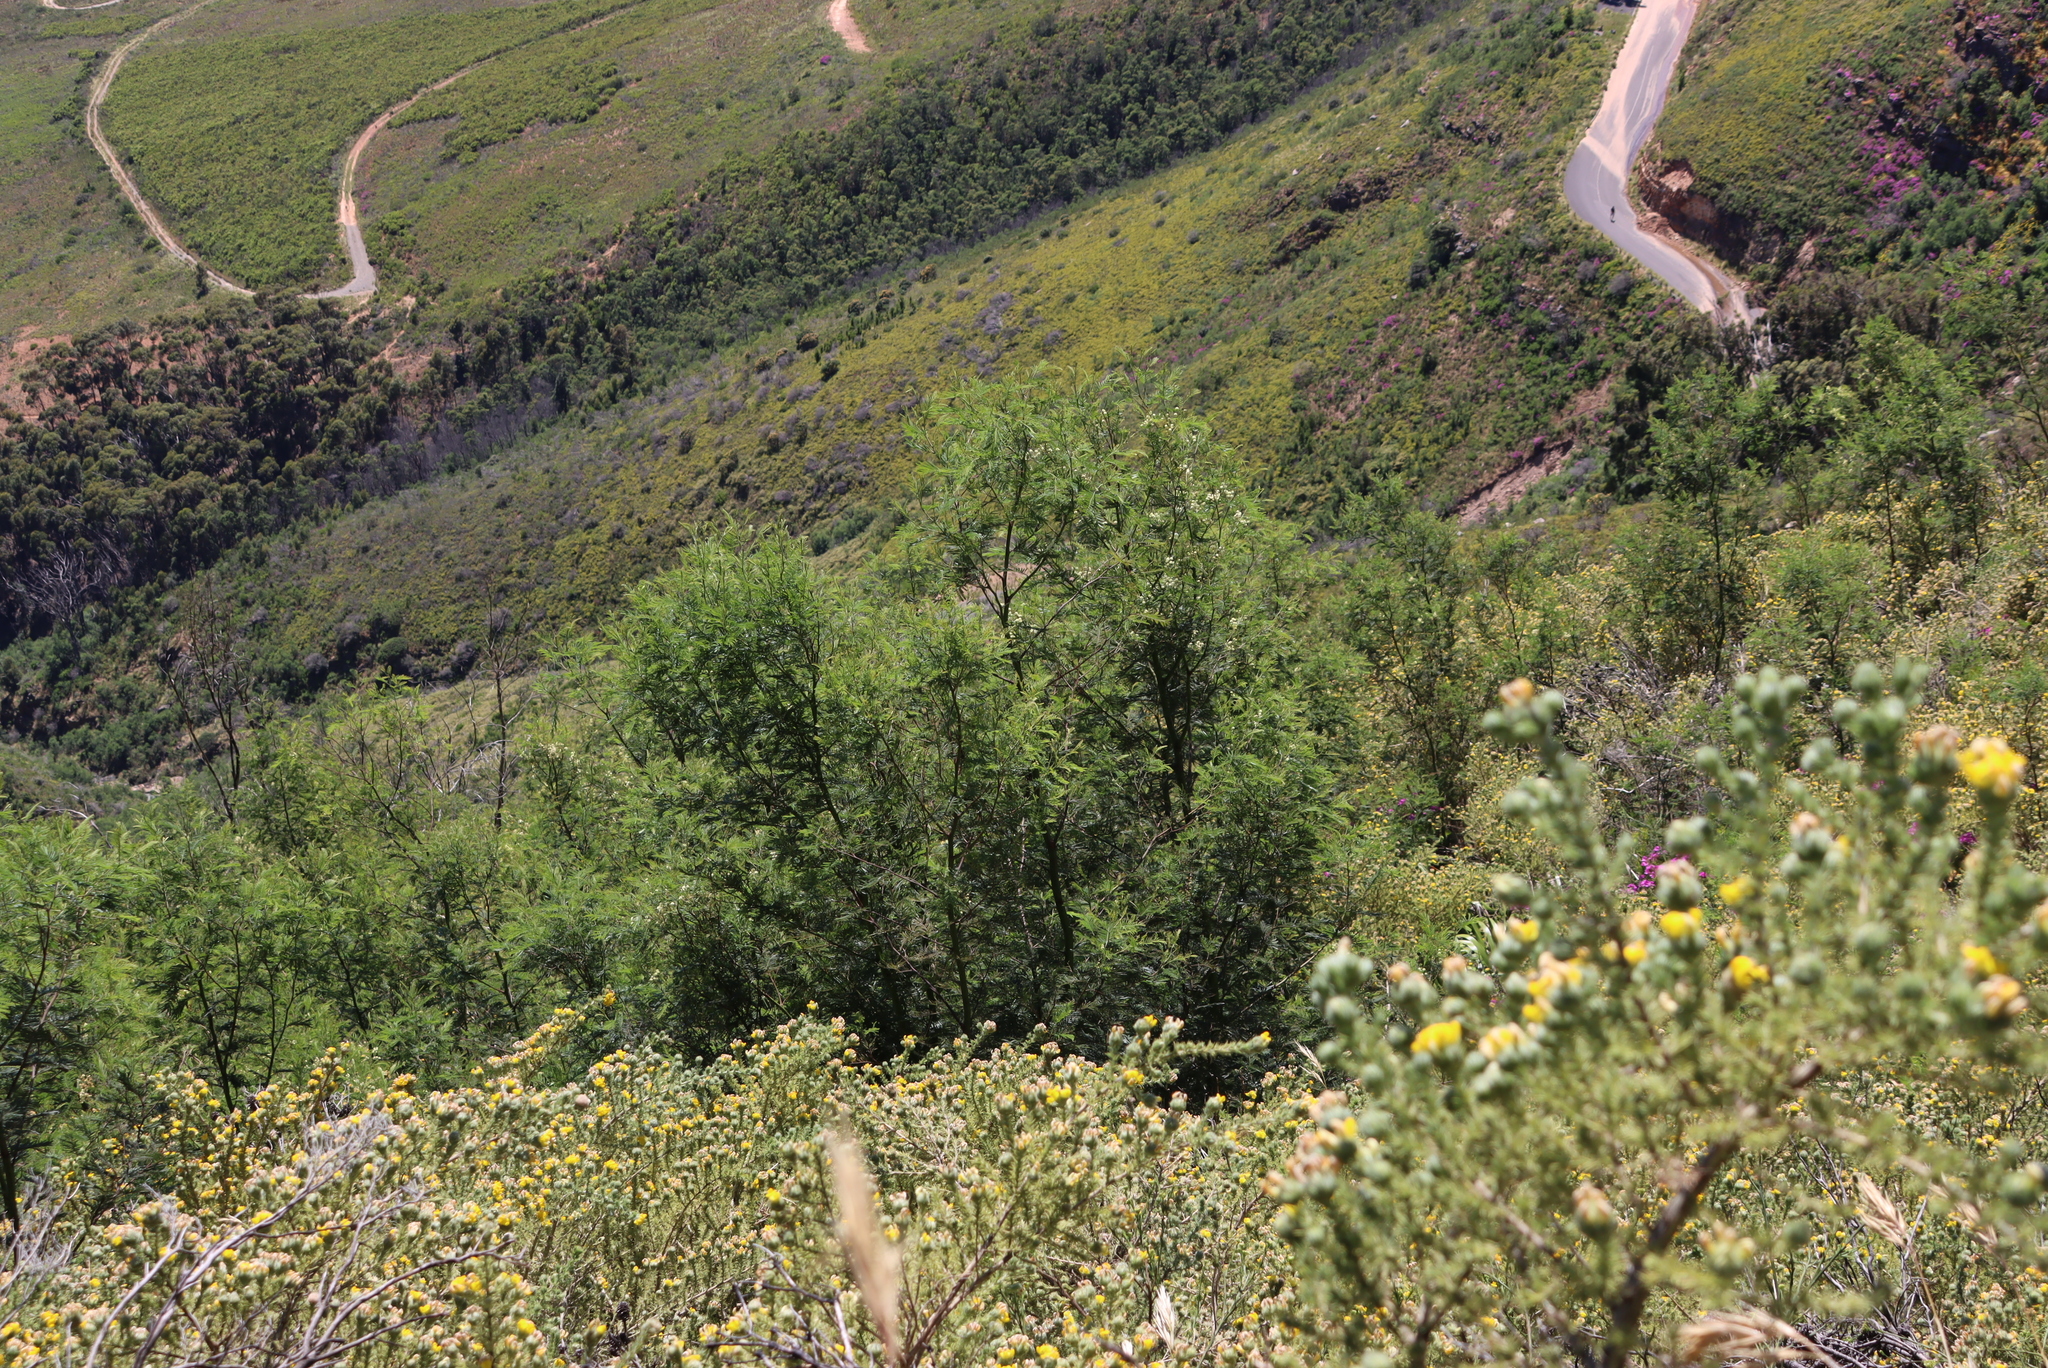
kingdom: Plantae
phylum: Tracheophyta
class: Magnoliopsida
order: Fabales
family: Fabaceae
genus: Acacia
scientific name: Acacia mearnsii
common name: Black wattle
